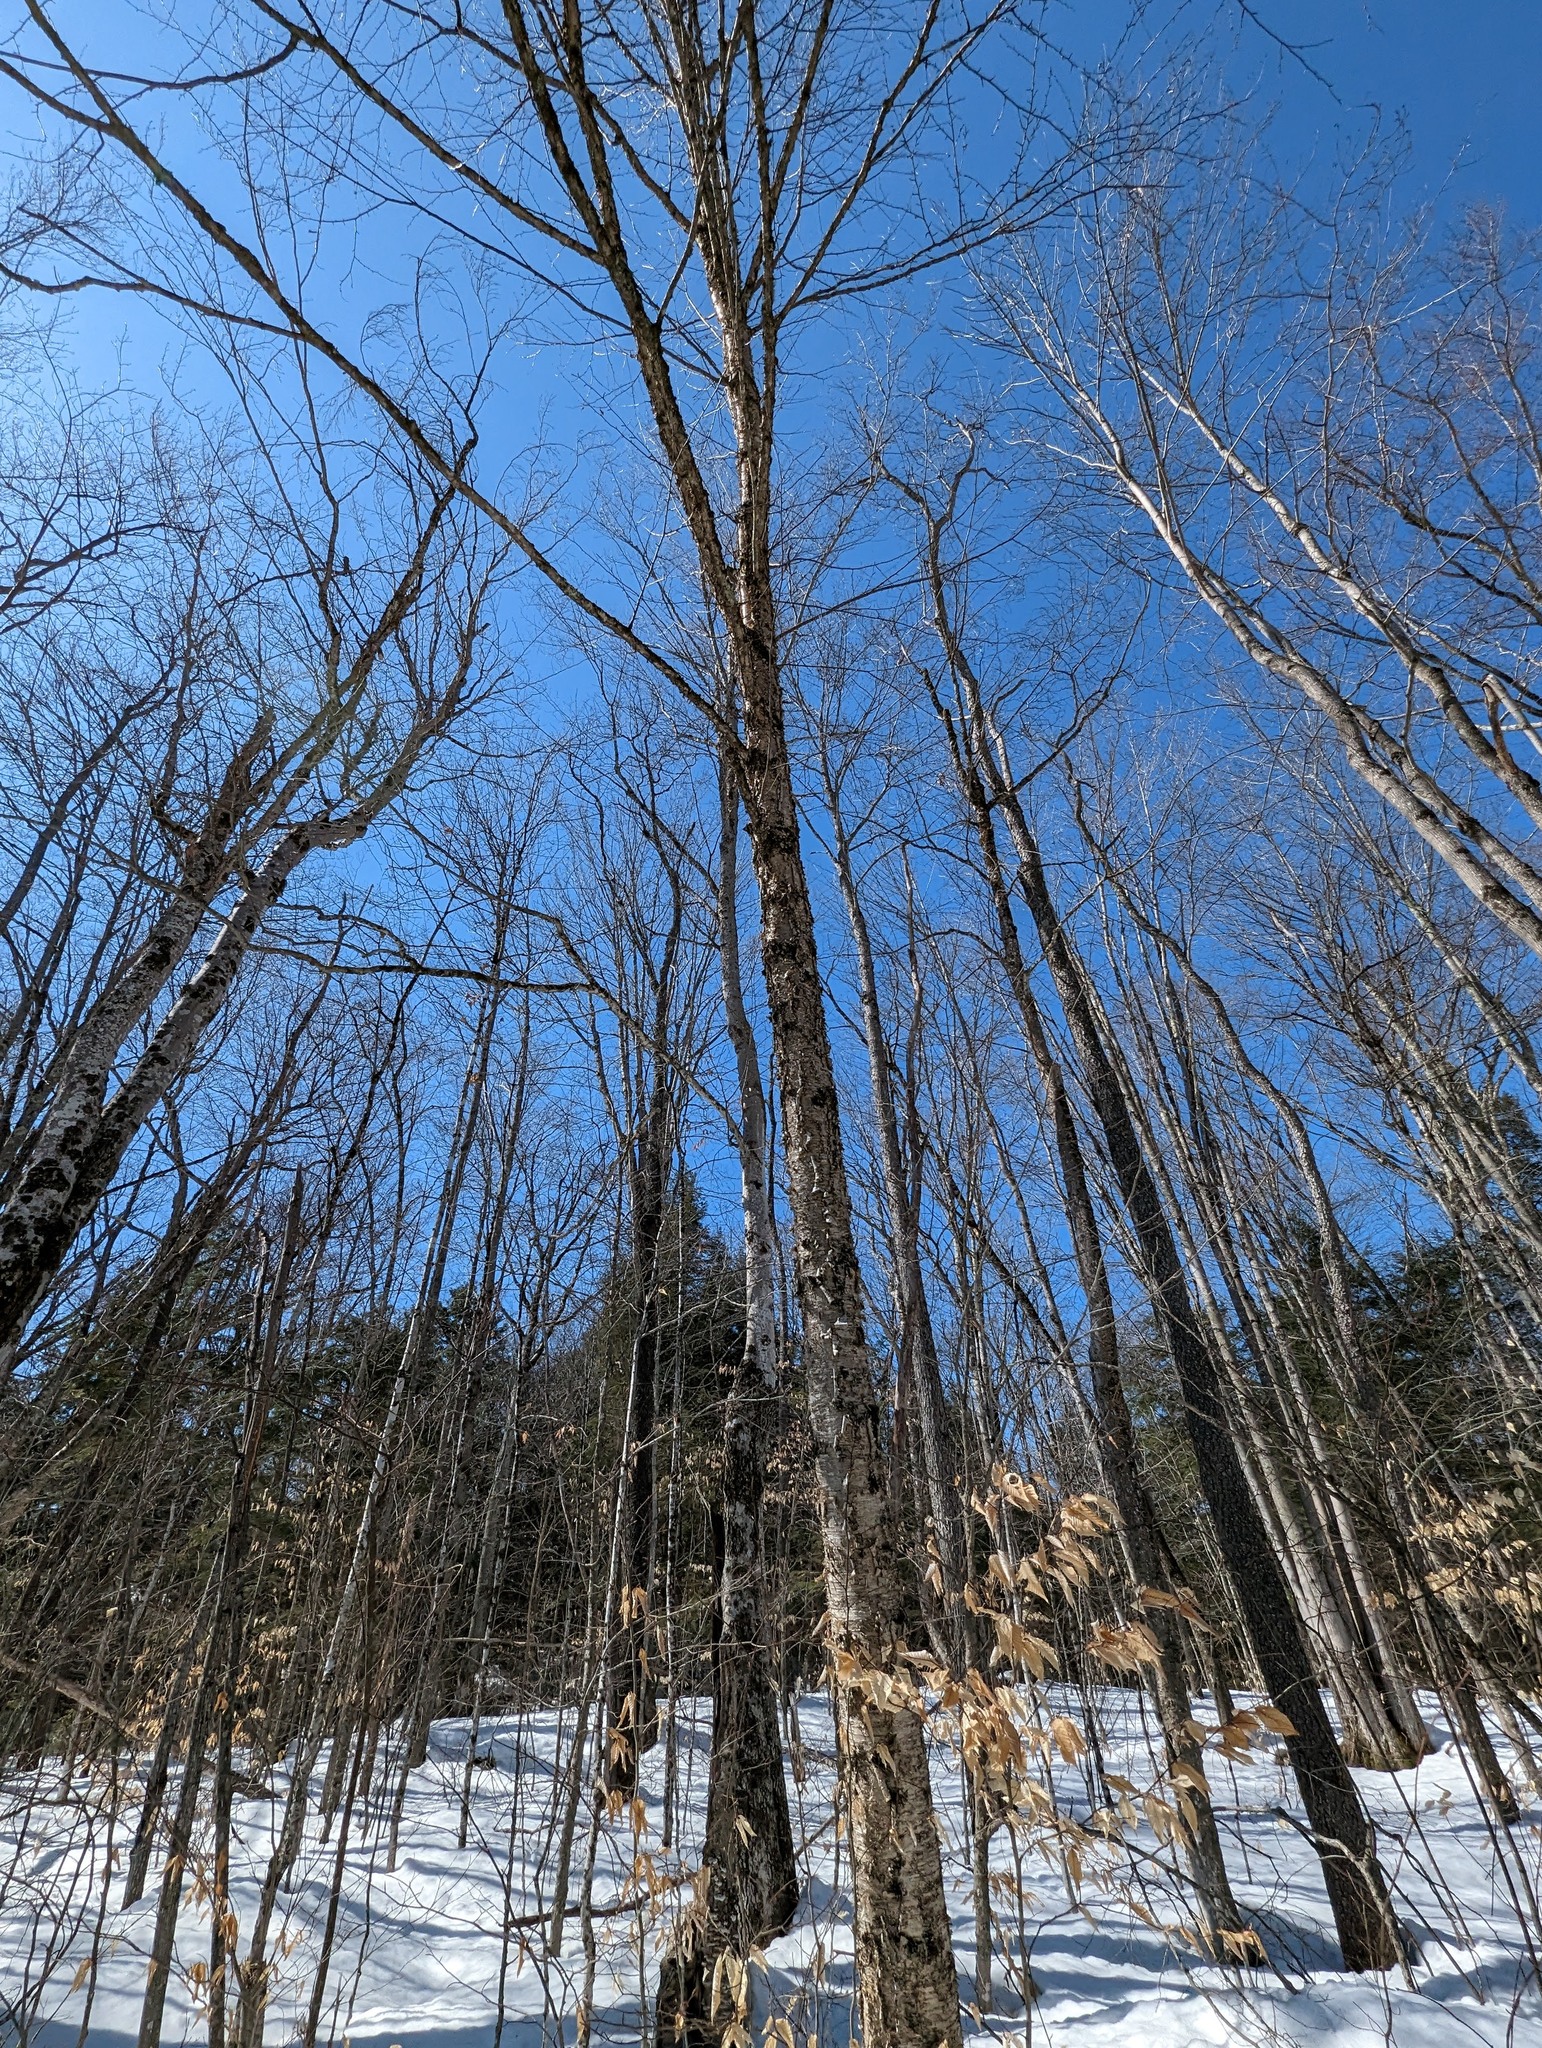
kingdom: Plantae
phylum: Tracheophyta
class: Magnoliopsida
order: Fagales
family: Betulaceae
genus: Betula
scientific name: Betula alleghaniensis
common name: Yellow birch
